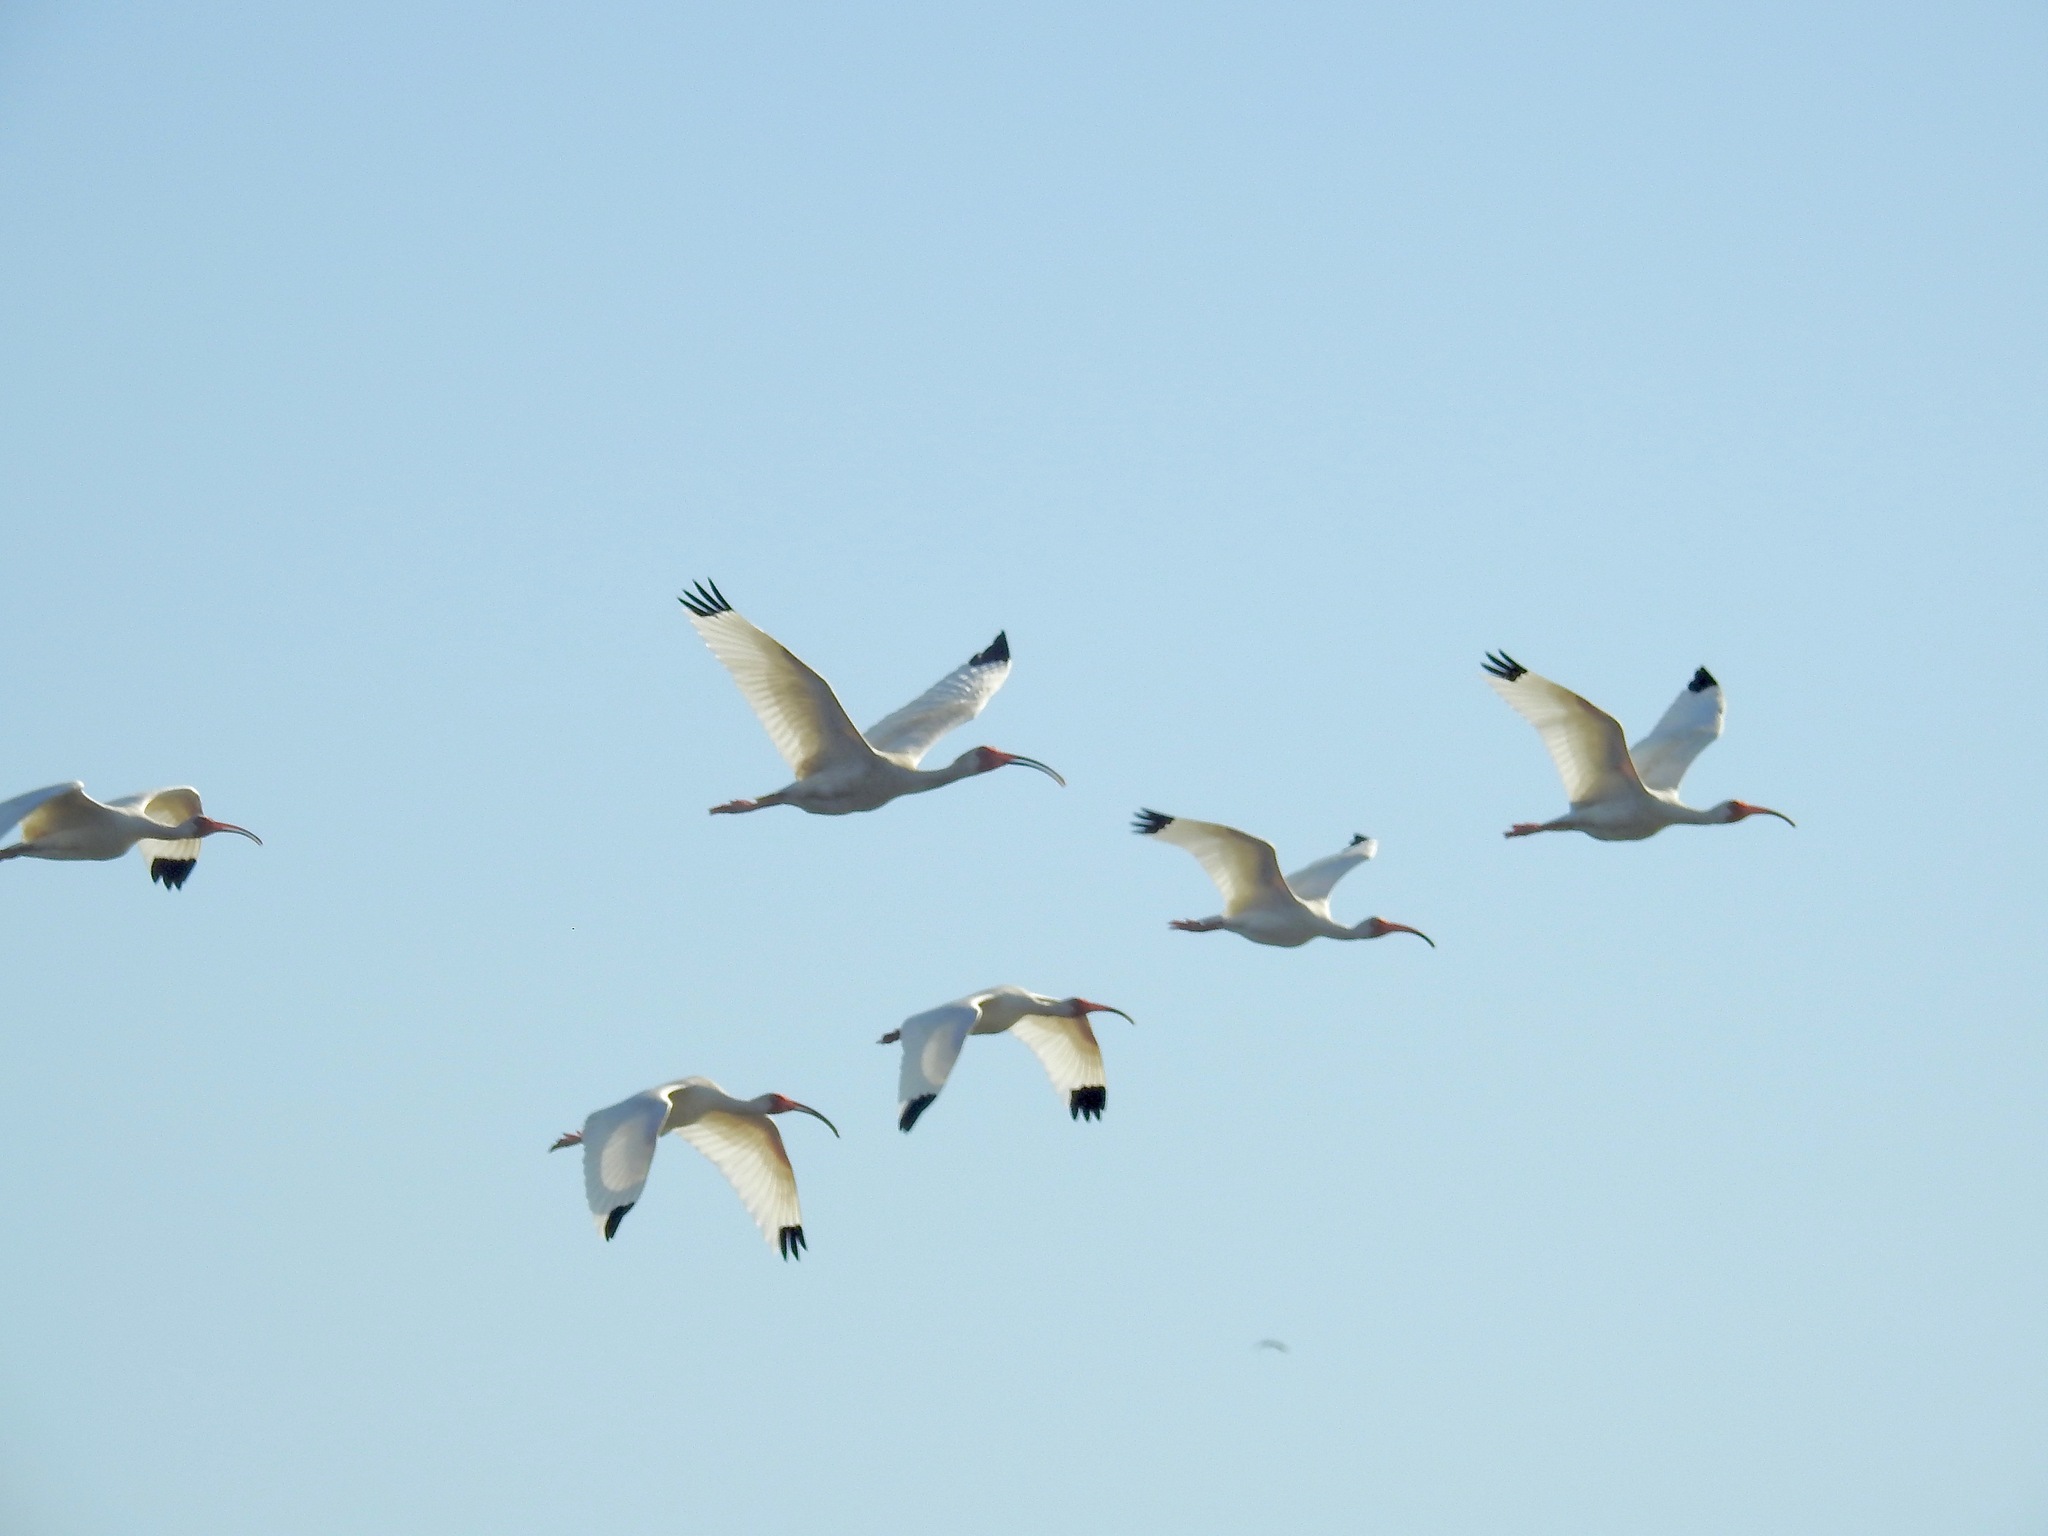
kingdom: Animalia
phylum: Chordata
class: Aves
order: Pelecaniformes
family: Threskiornithidae
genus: Eudocimus
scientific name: Eudocimus albus
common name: White ibis
